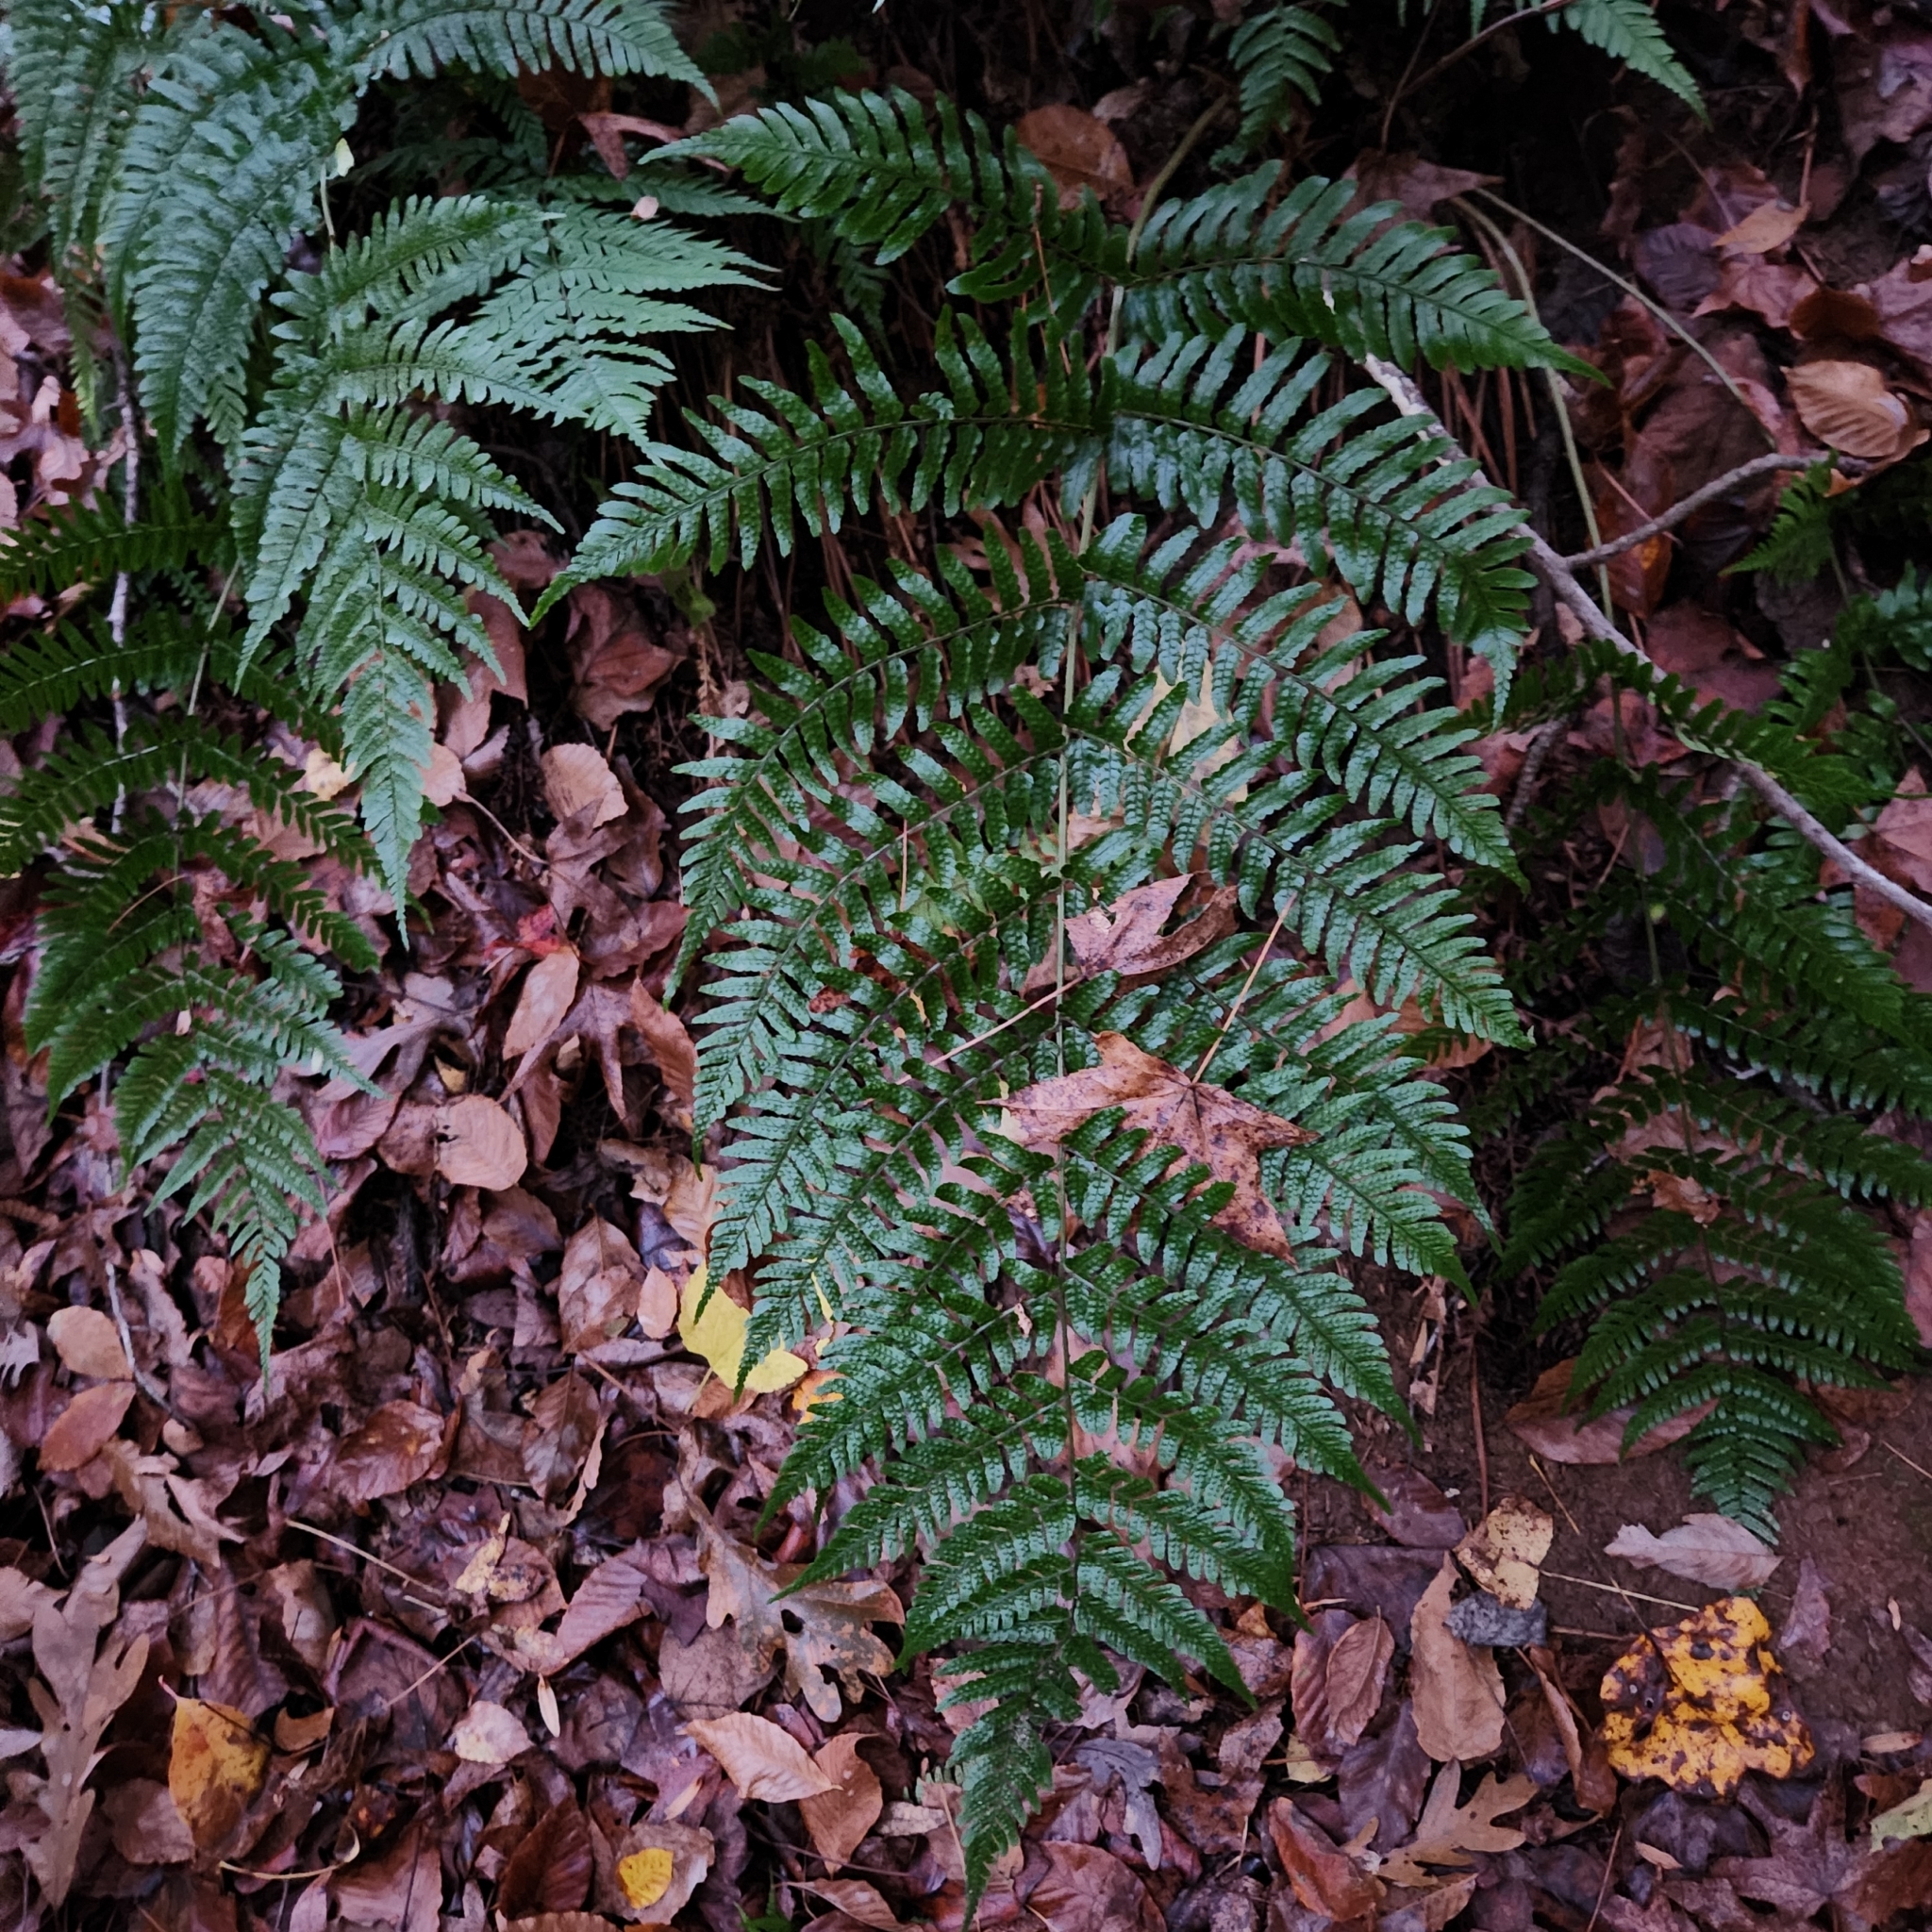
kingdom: Plantae
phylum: Tracheophyta
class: Polypodiopsida
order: Polypodiales
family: Dryopteridaceae
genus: Dryopteris
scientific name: Dryopteris erythrosora
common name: Autumn fern
